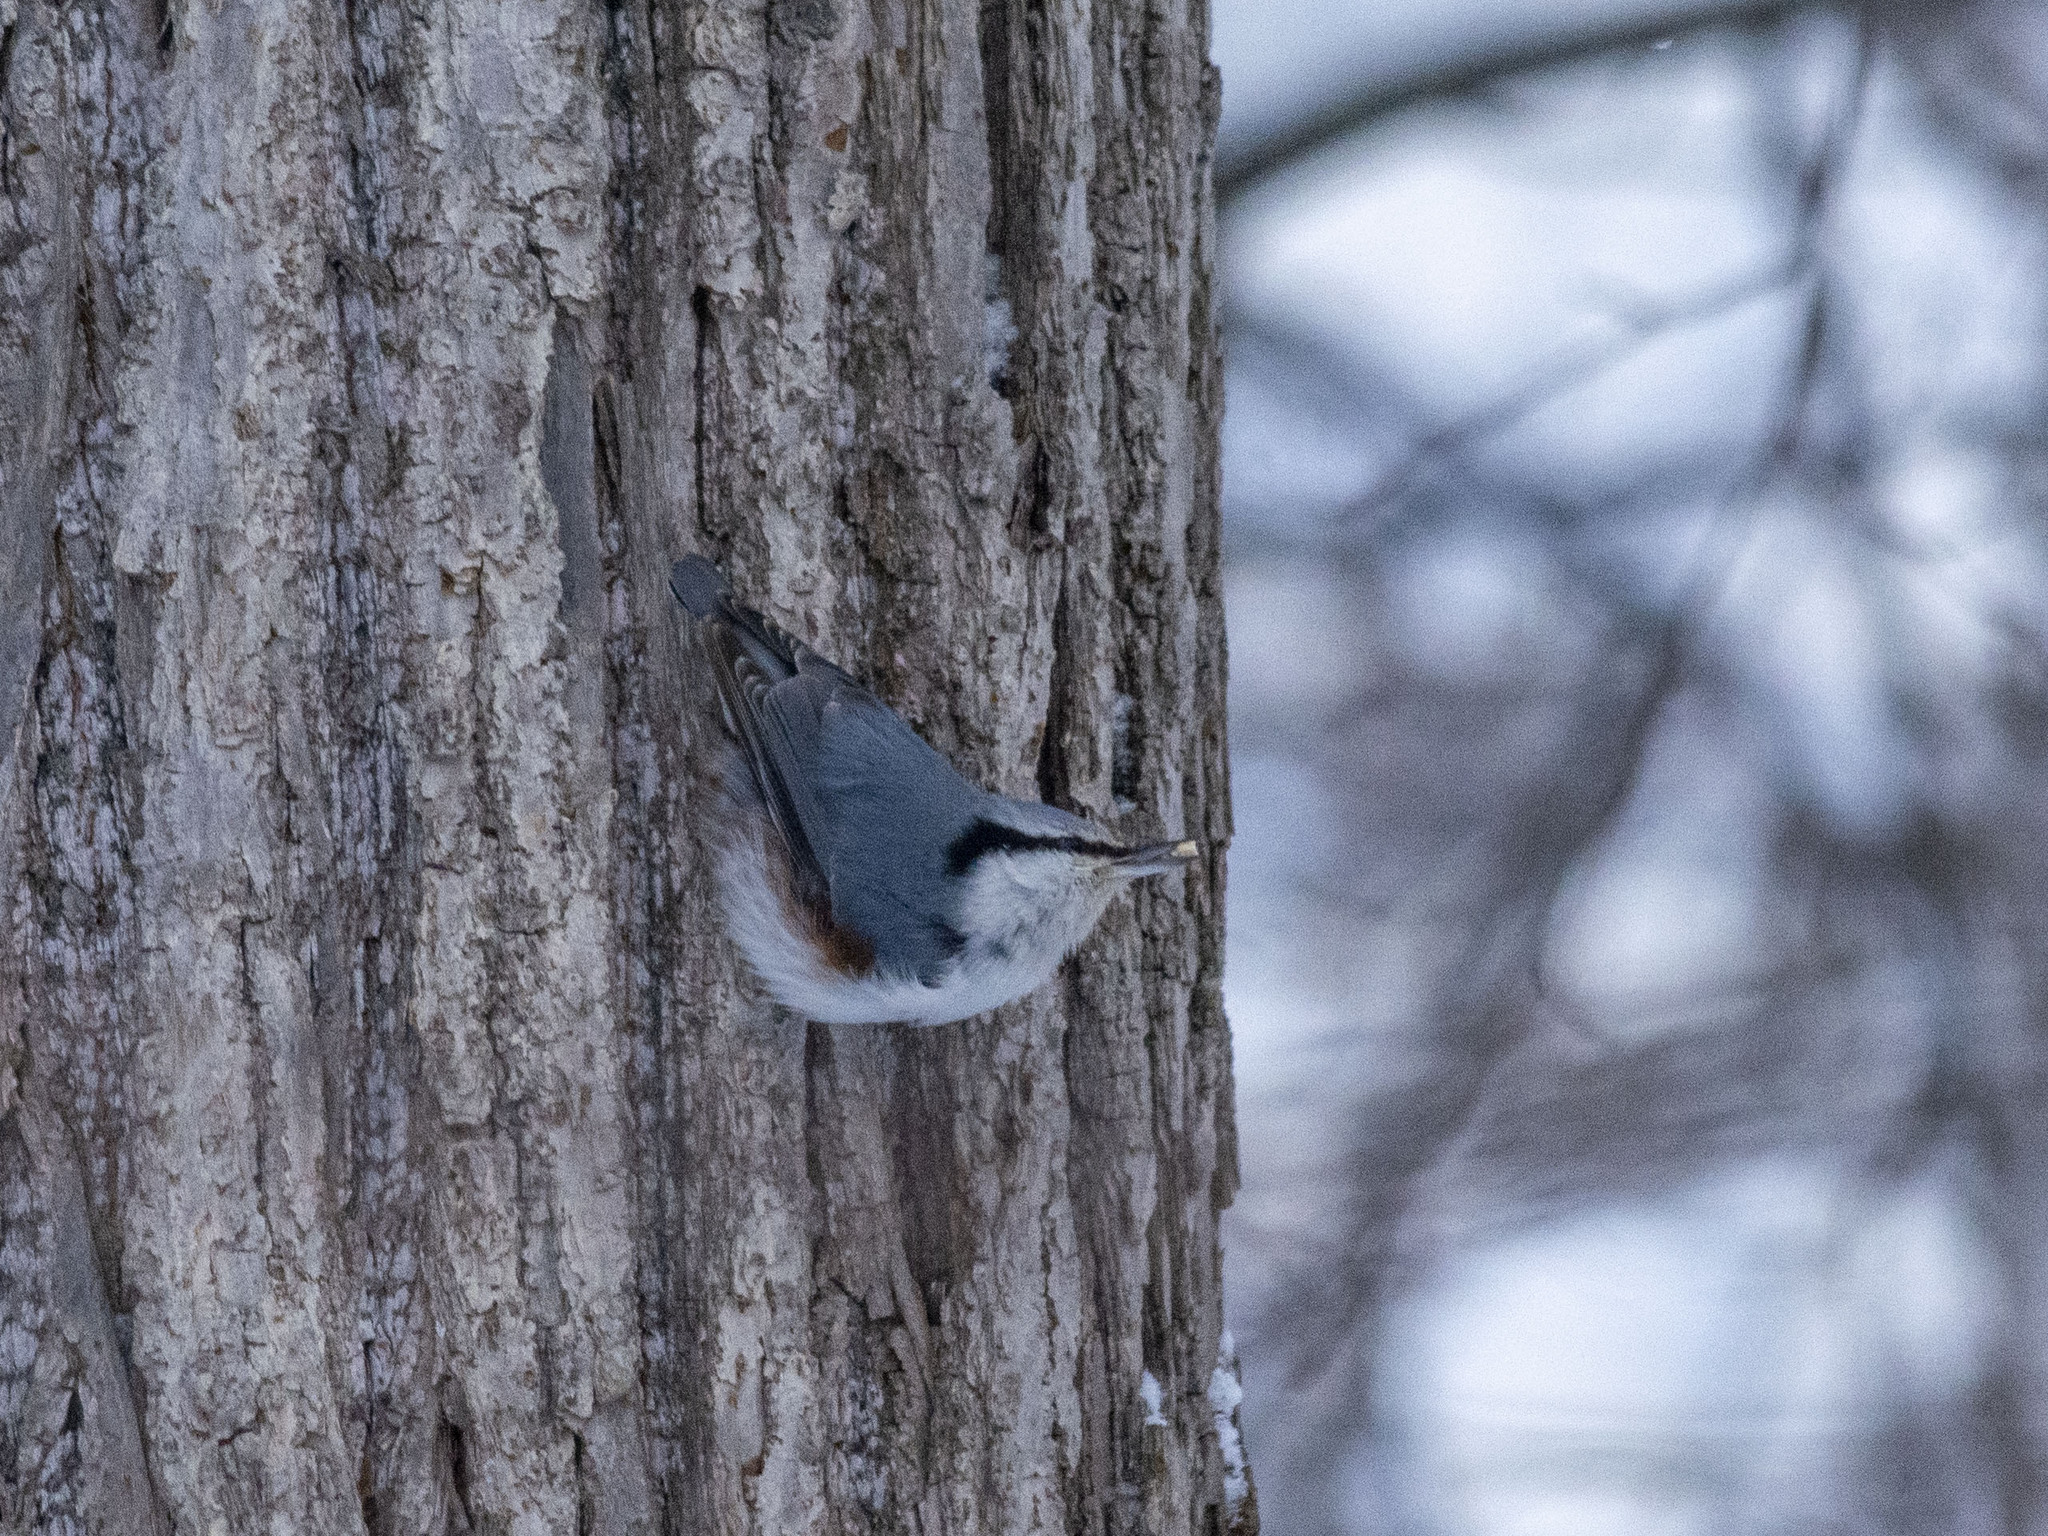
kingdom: Animalia
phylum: Chordata
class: Aves
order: Passeriformes
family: Sittidae
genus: Sitta
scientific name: Sitta europaea
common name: Eurasian nuthatch
